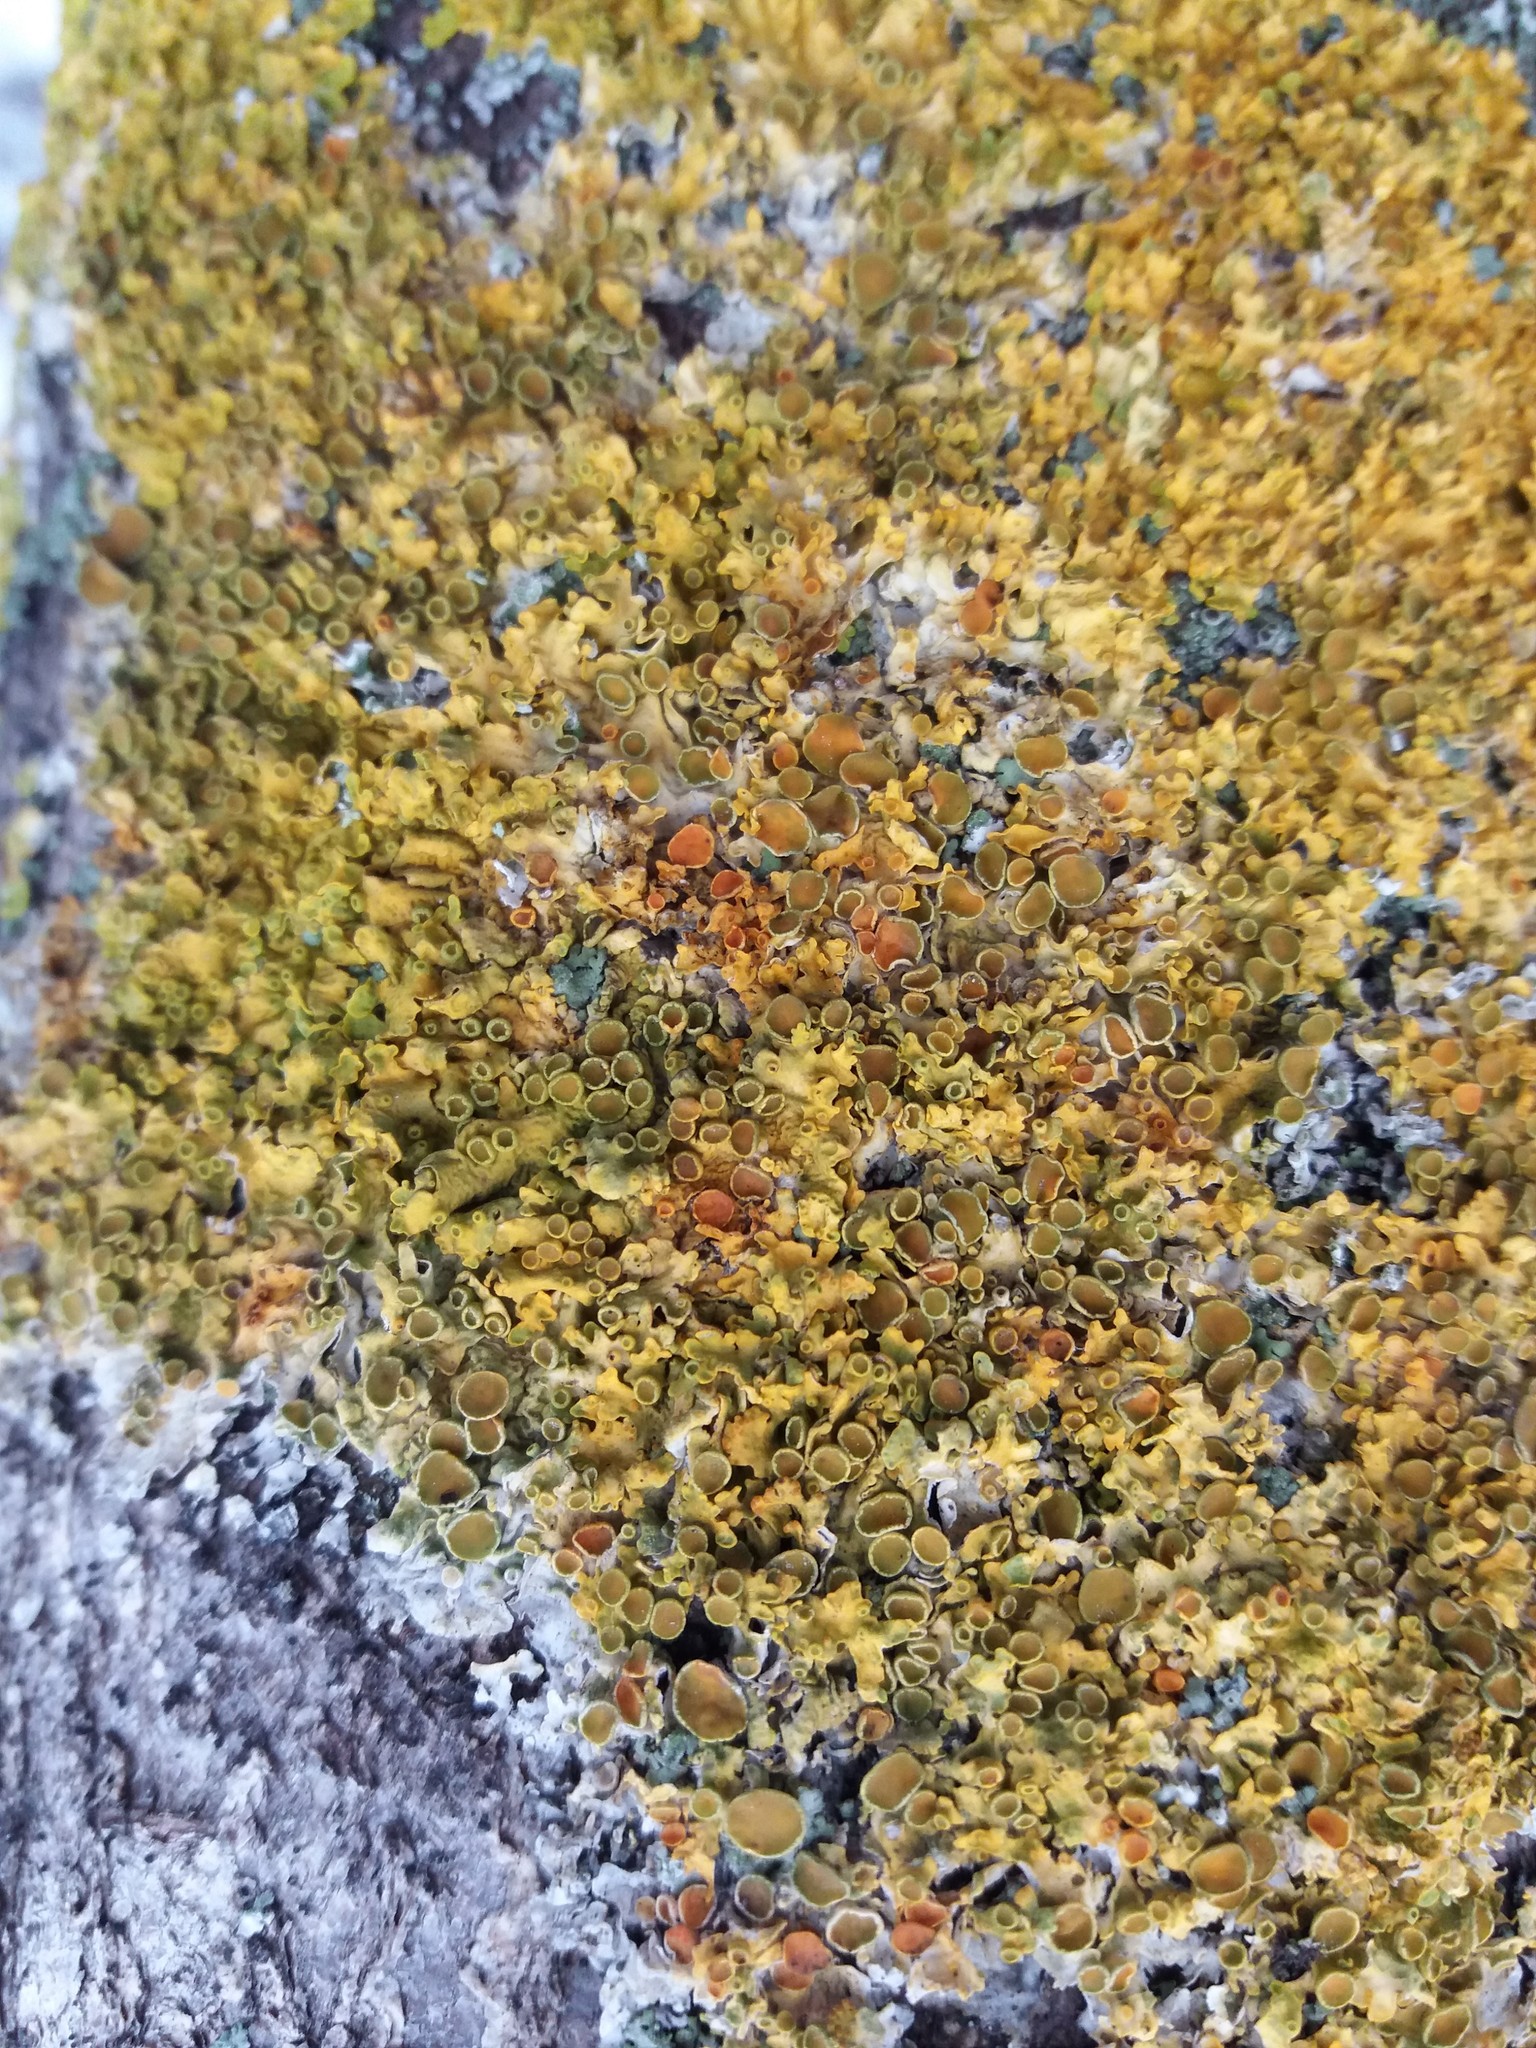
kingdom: Fungi
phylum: Ascomycota
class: Lecanoromycetes
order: Teloschistales
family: Teloschistaceae
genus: Xanthoria
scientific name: Xanthoria parietina
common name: Common orange lichen
